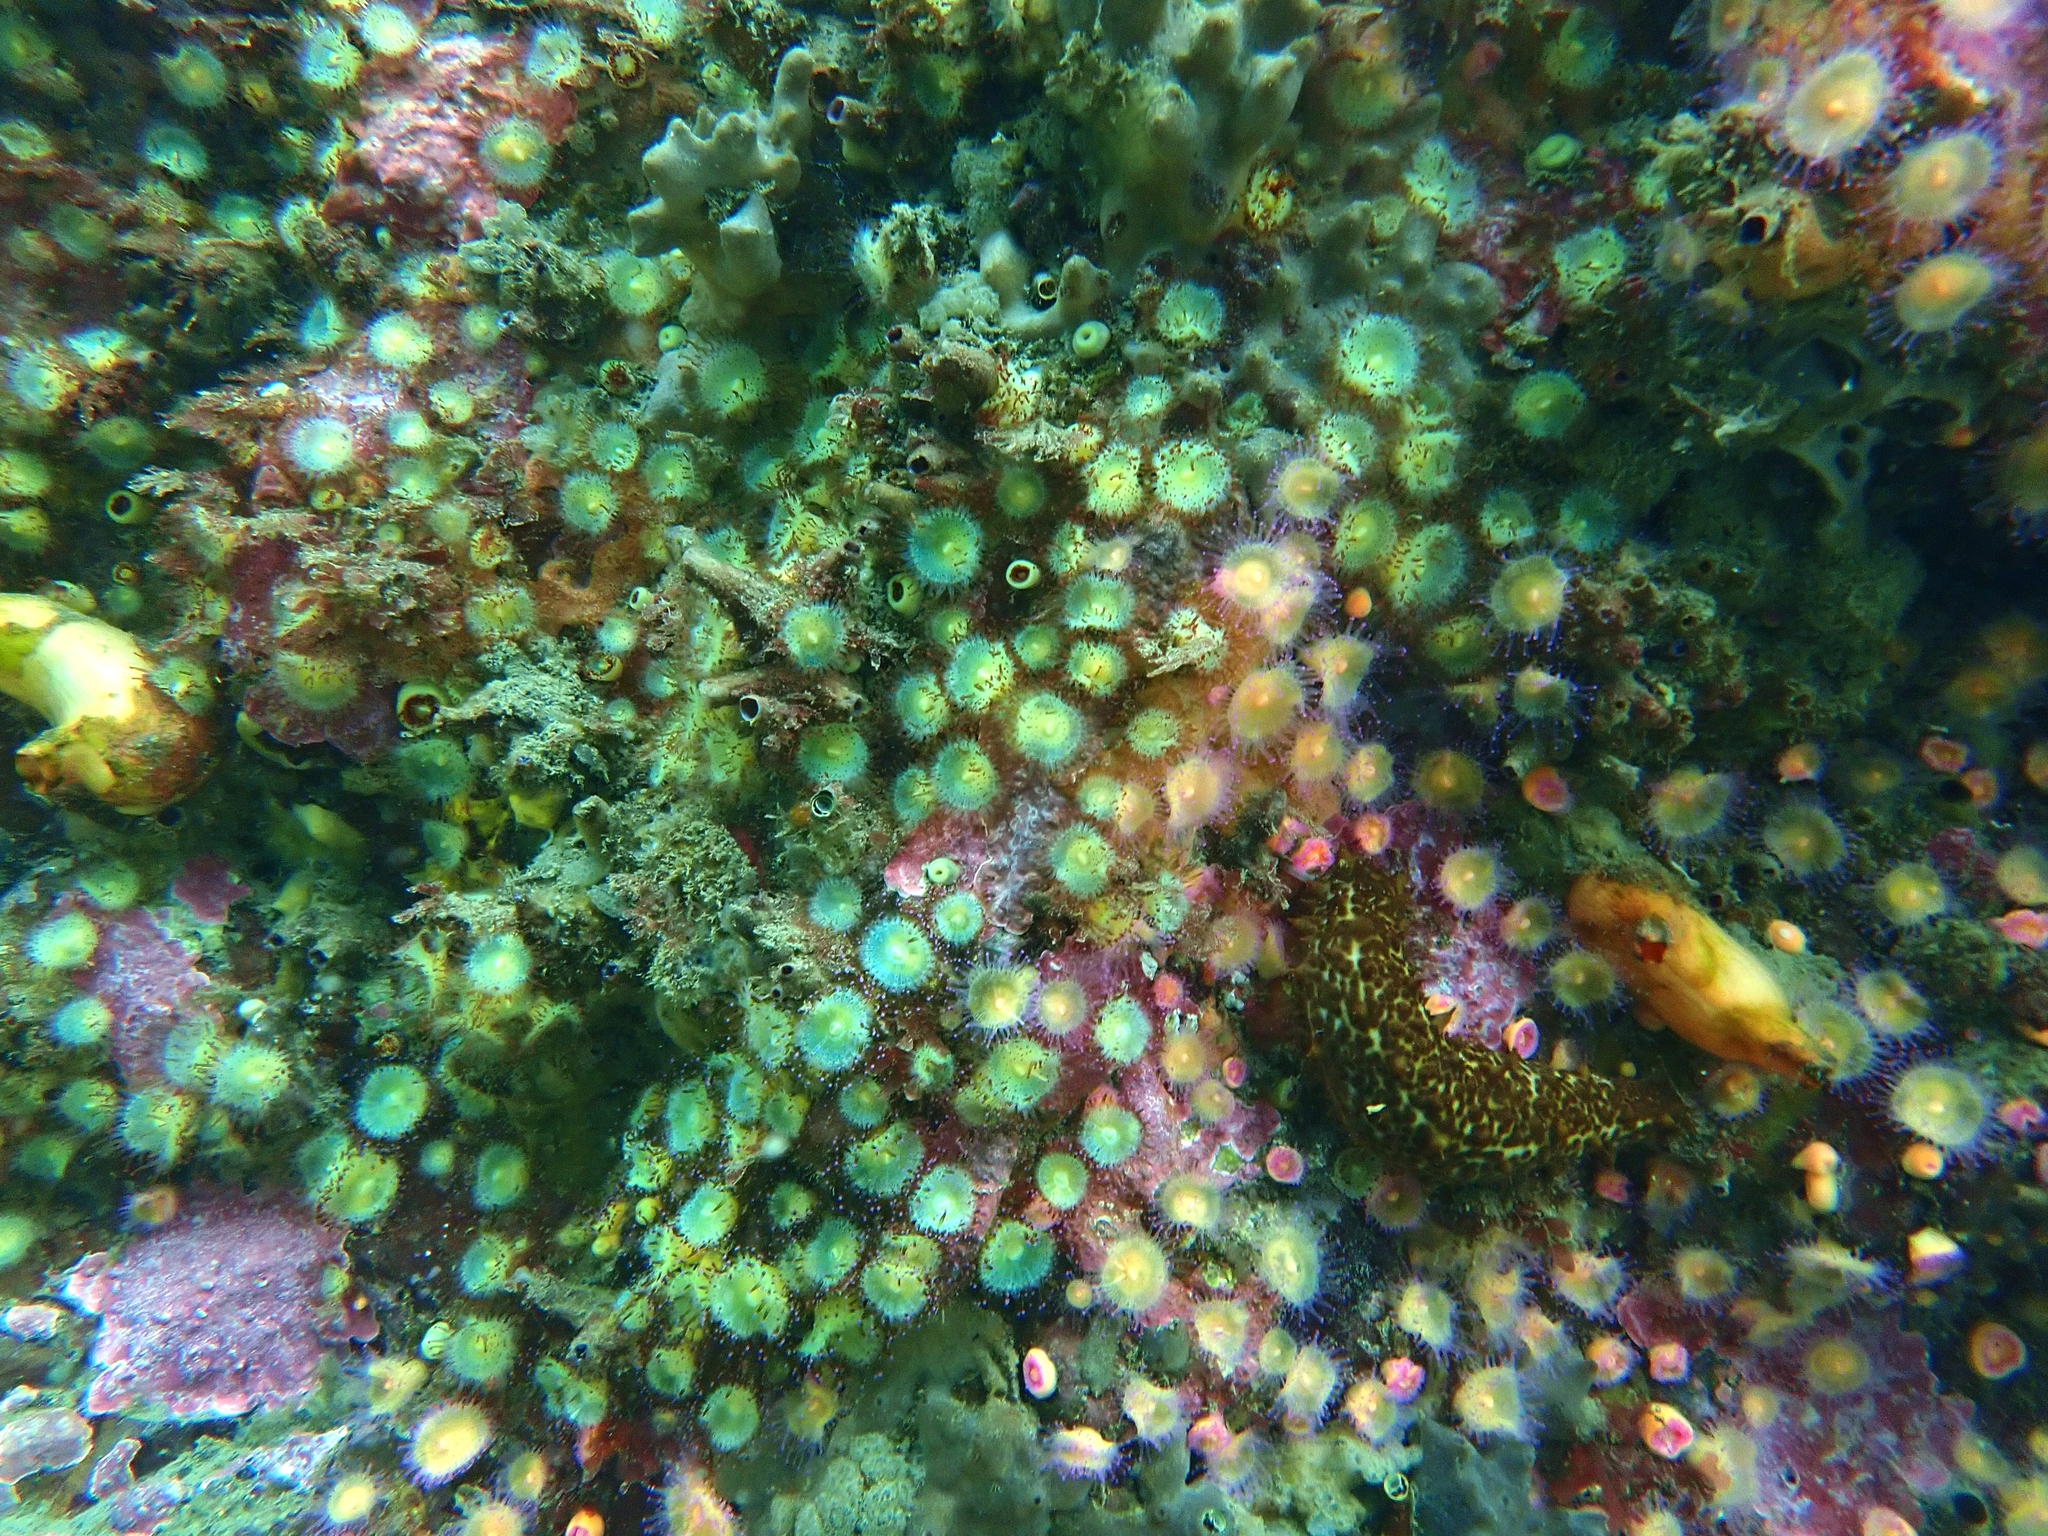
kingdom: Animalia
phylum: Cnidaria
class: Anthozoa
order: Corallimorpharia
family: Corallimorphidae
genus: Corynactis
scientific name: Corynactis australis
